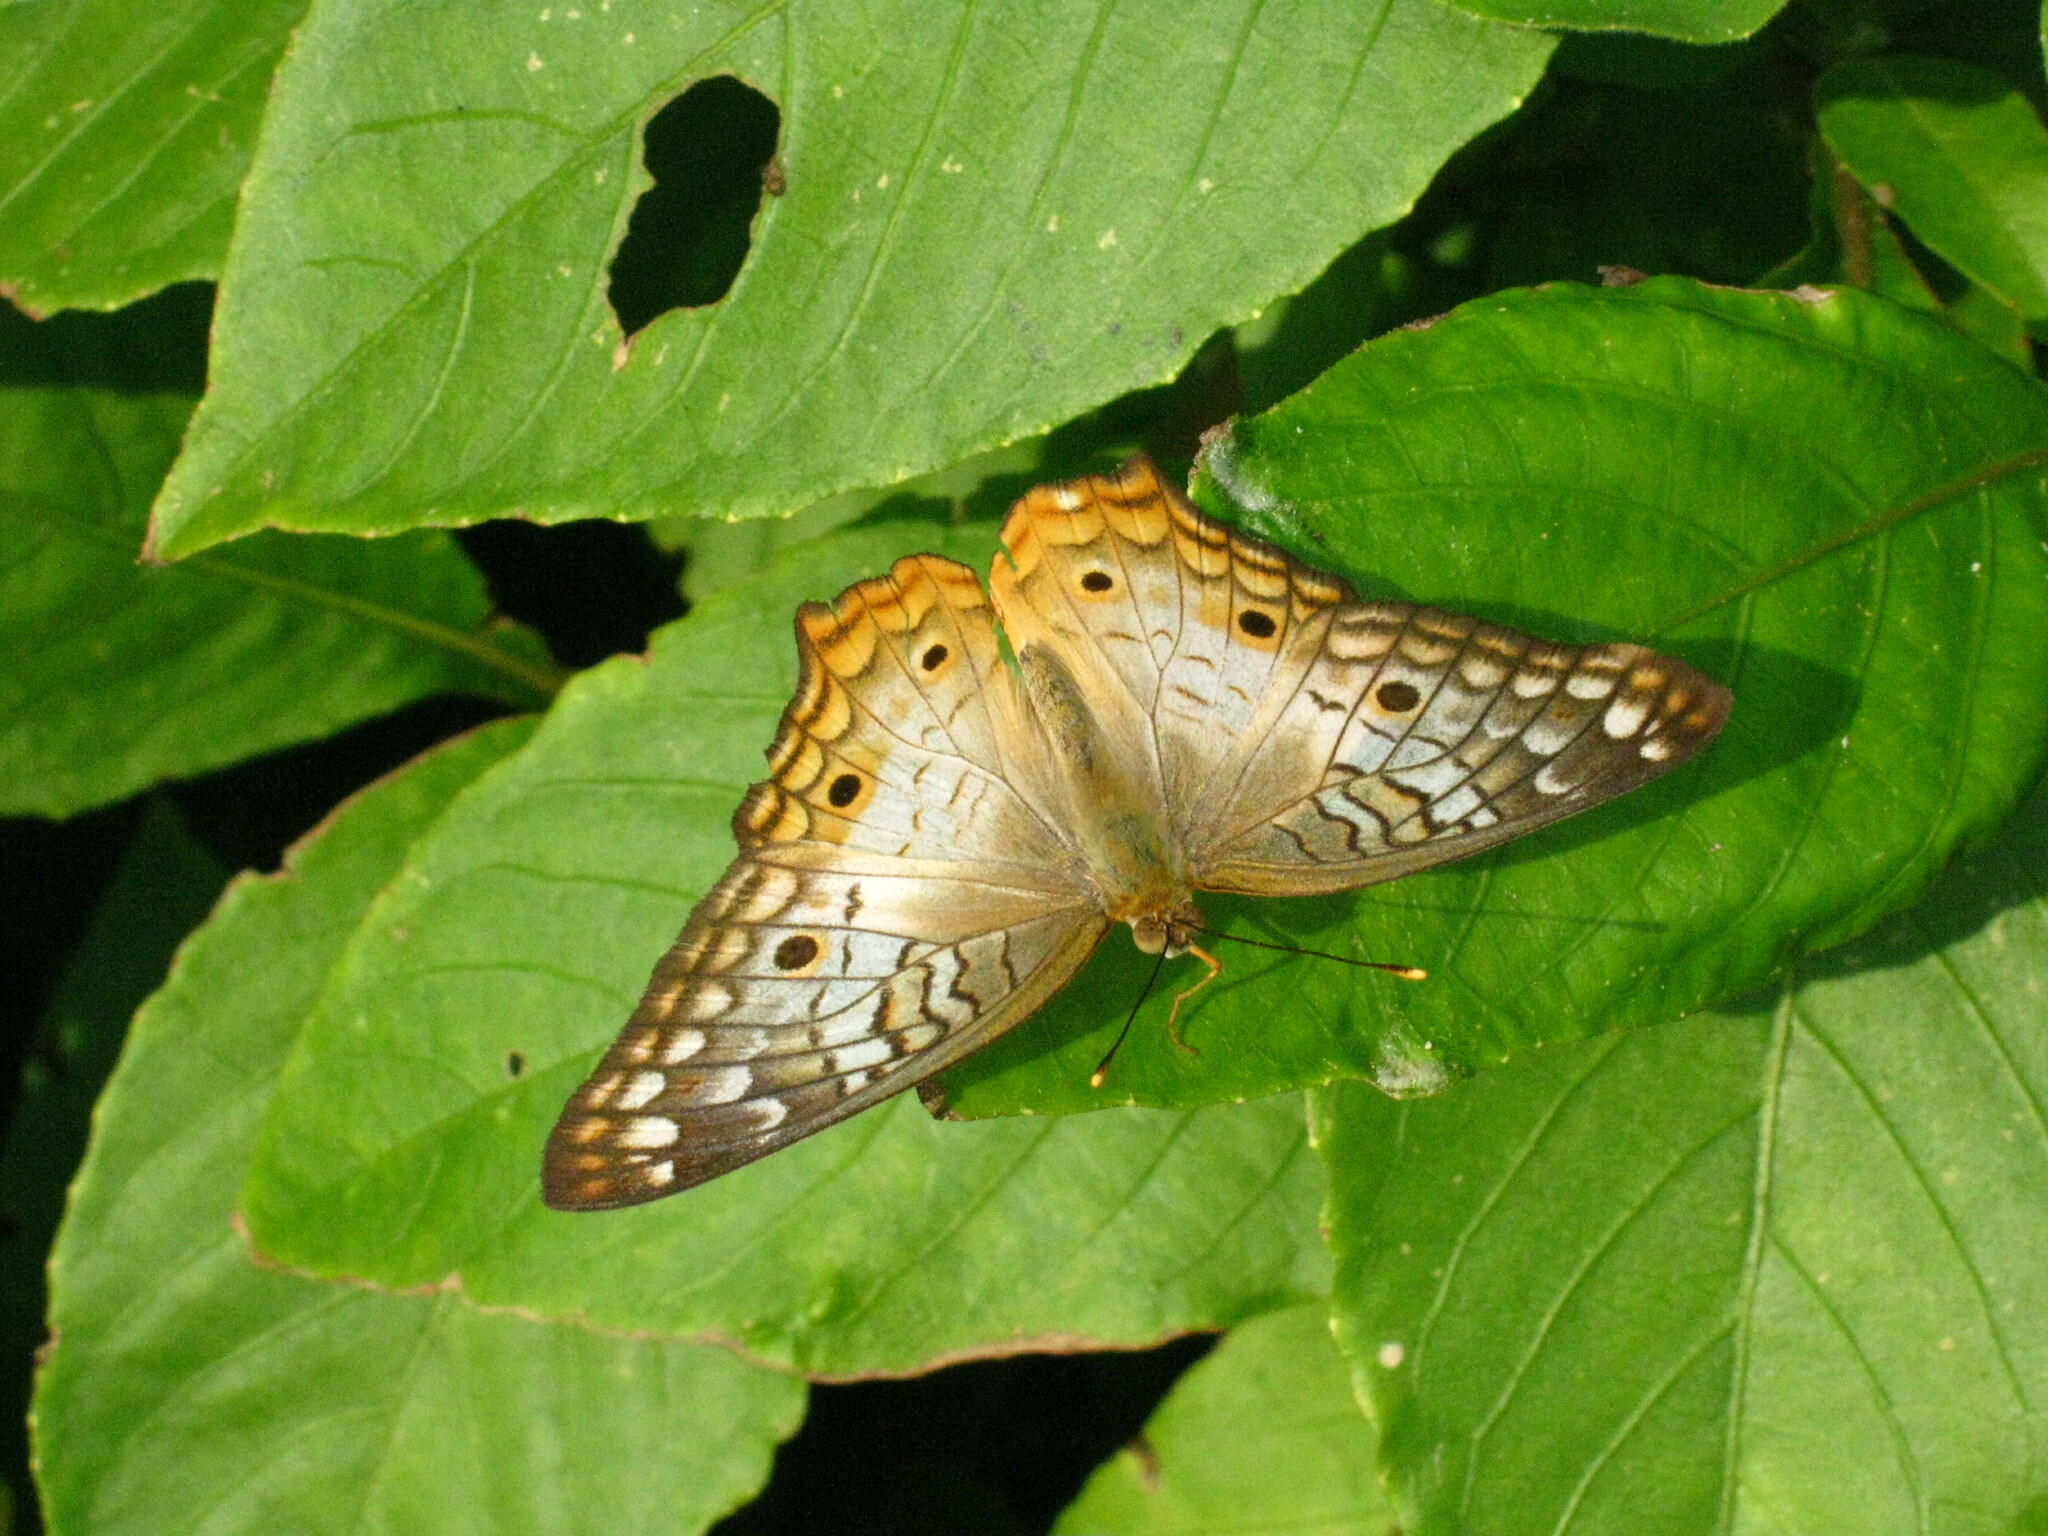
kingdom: Animalia
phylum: Arthropoda
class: Insecta
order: Lepidoptera
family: Nymphalidae
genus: Anartia
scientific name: Anartia jatrophae
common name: White peacock
